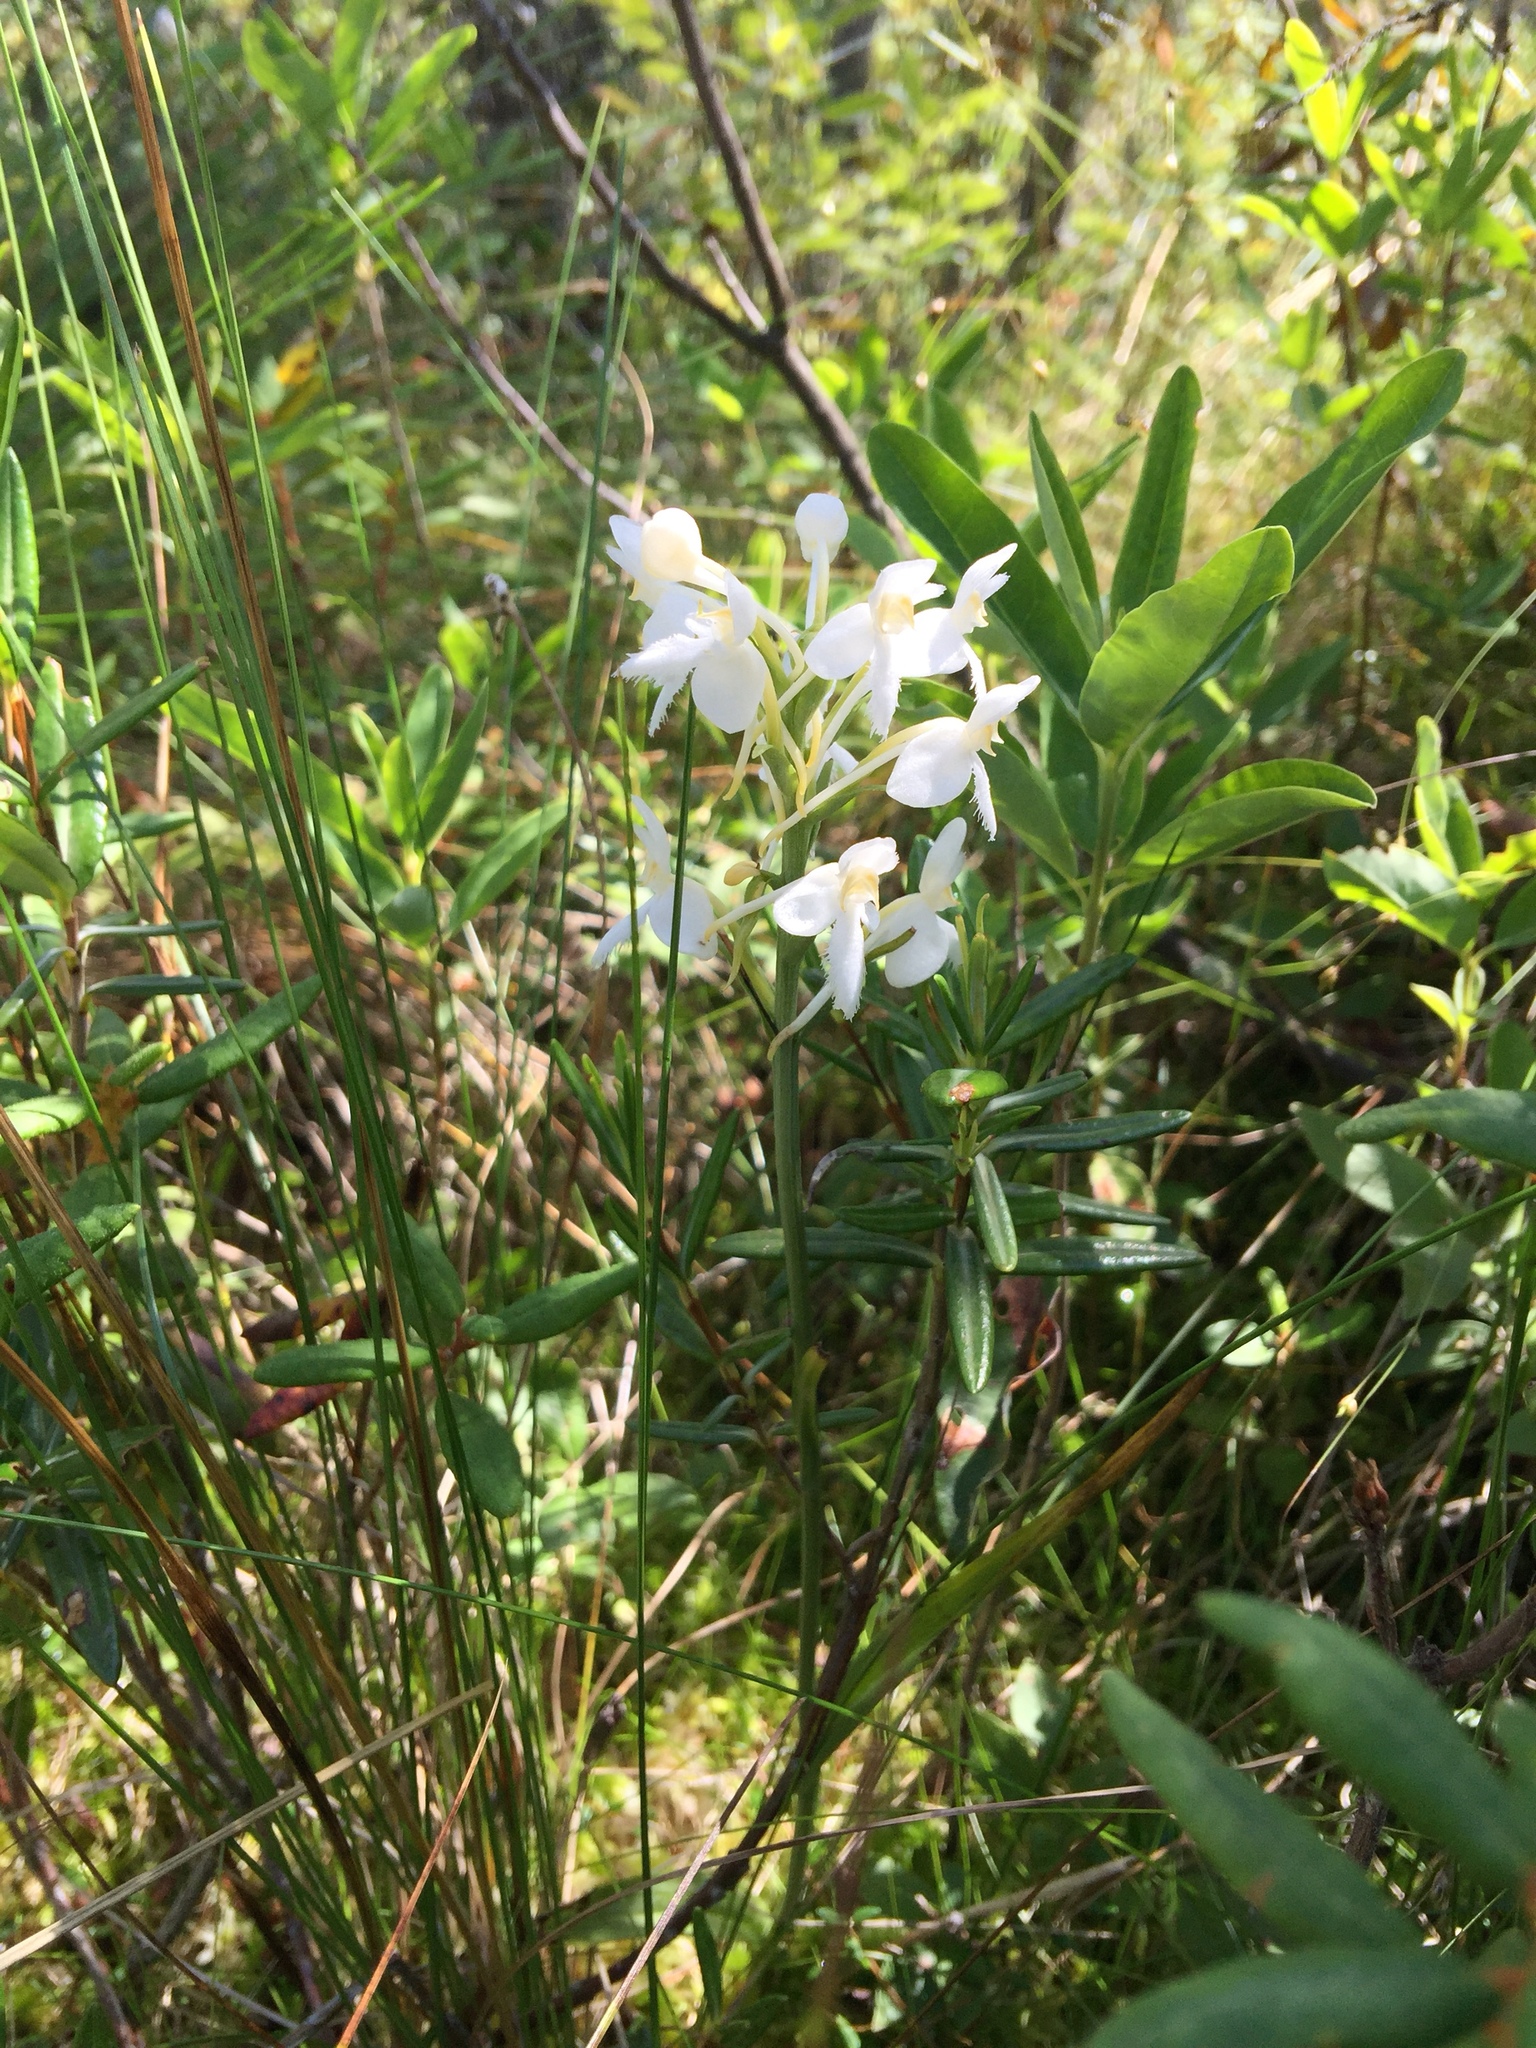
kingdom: Plantae
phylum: Tracheophyta
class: Liliopsida
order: Asparagales
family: Orchidaceae
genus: Platanthera
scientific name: Platanthera blephariglottis
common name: White fringed orchid
